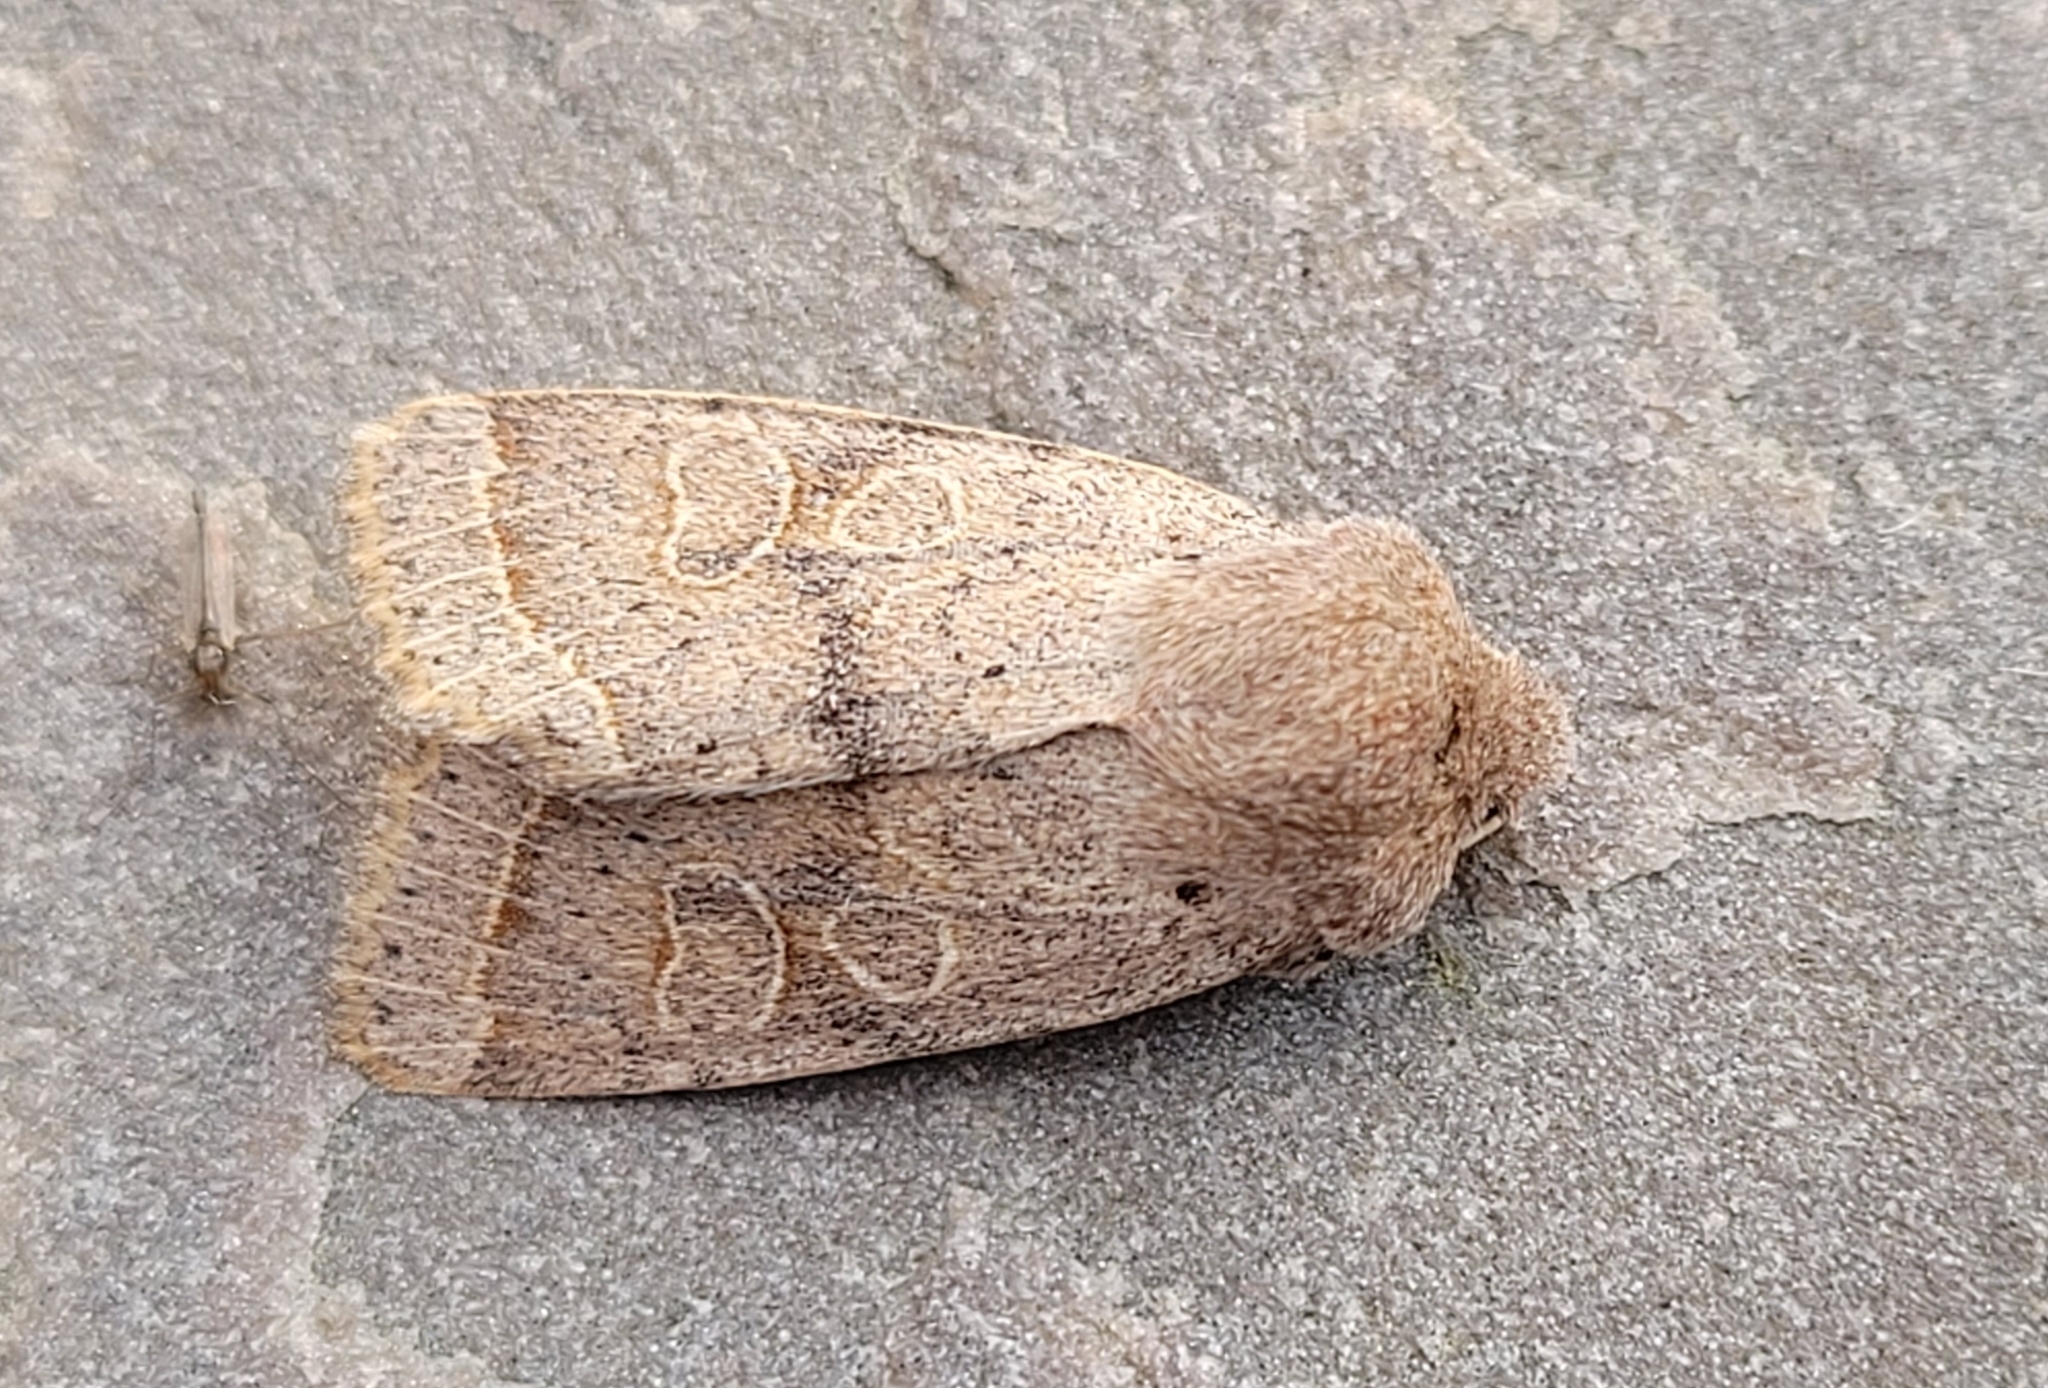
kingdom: Animalia
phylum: Arthropoda
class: Insecta
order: Lepidoptera
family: Noctuidae
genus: Orthosia
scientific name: Orthosia cerasi
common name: Common quaker
